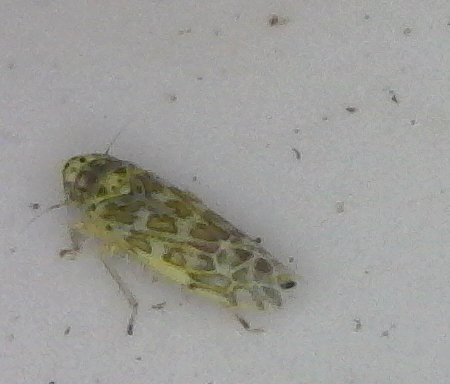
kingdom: Animalia
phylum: Arthropoda
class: Insecta
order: Hemiptera
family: Cicadellidae
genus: Eupteryx
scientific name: Eupteryx decemnotata
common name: Ligurian leafhopper
